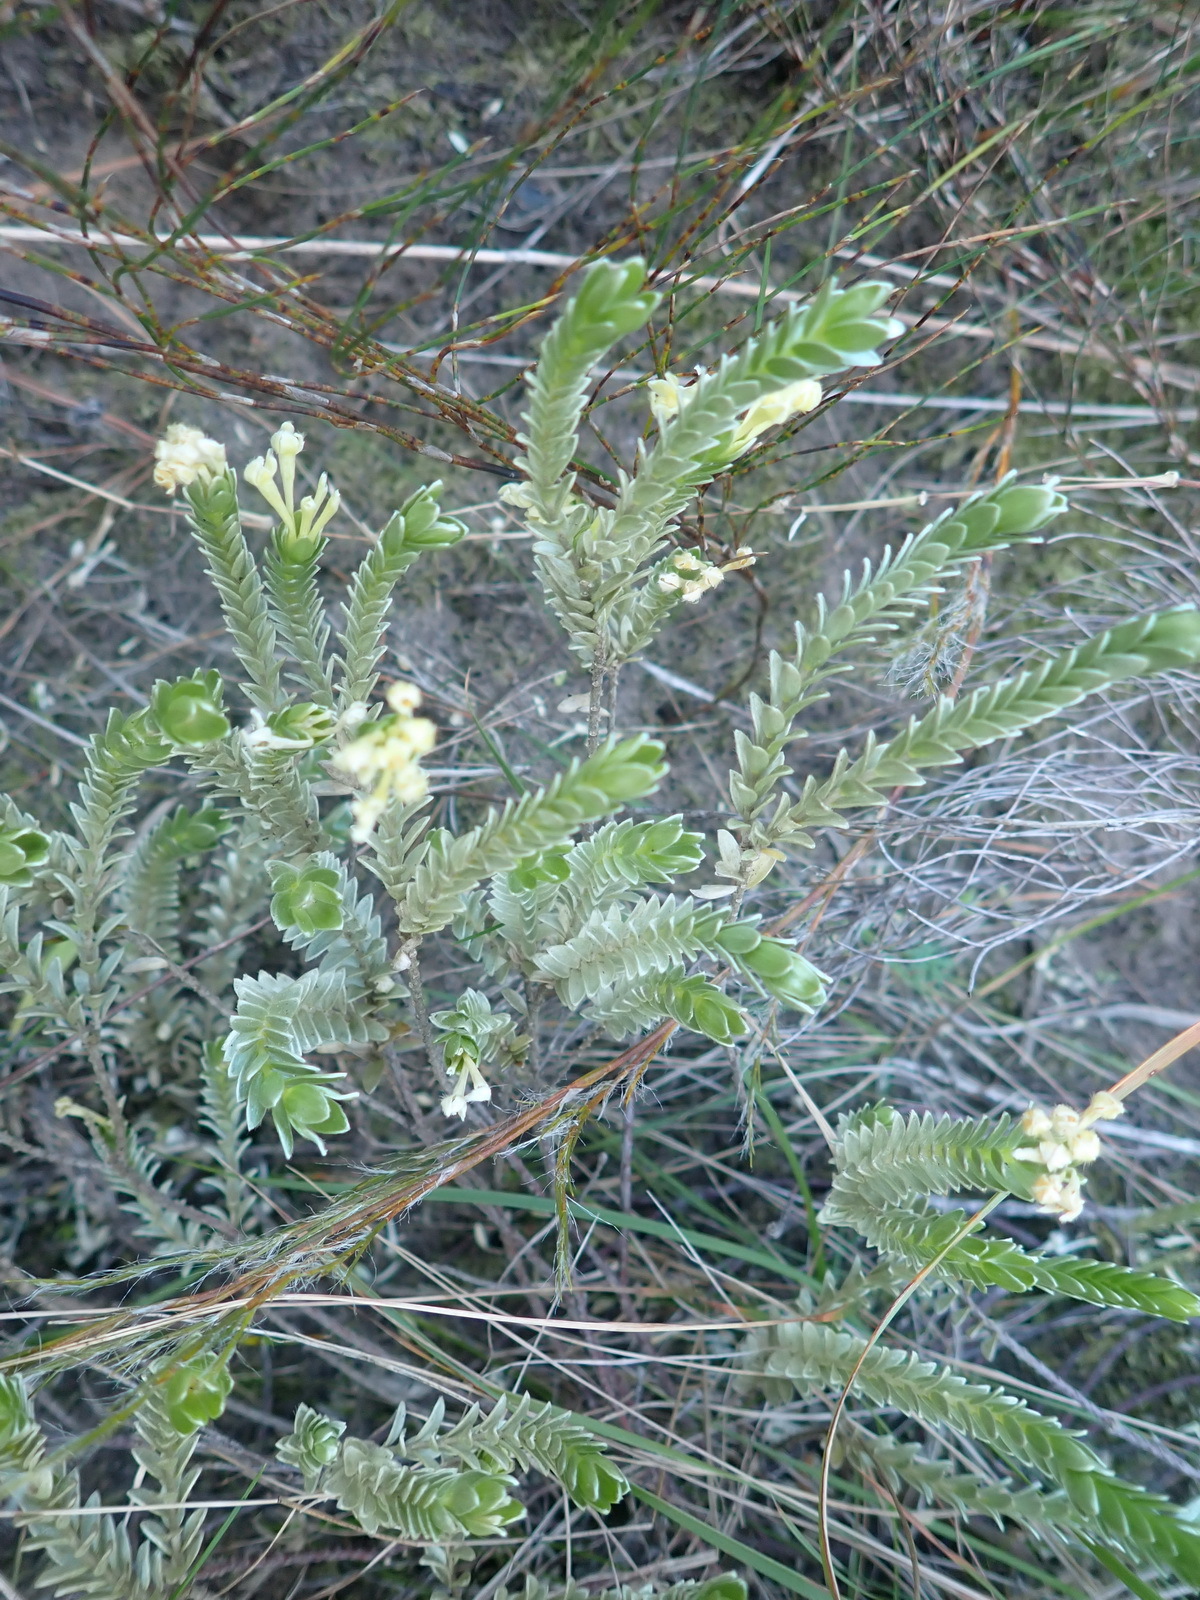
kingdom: Plantae
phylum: Tracheophyta
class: Magnoliopsida
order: Malvales
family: Thymelaeaceae
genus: Gnidia
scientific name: Gnidia chrysophylla
